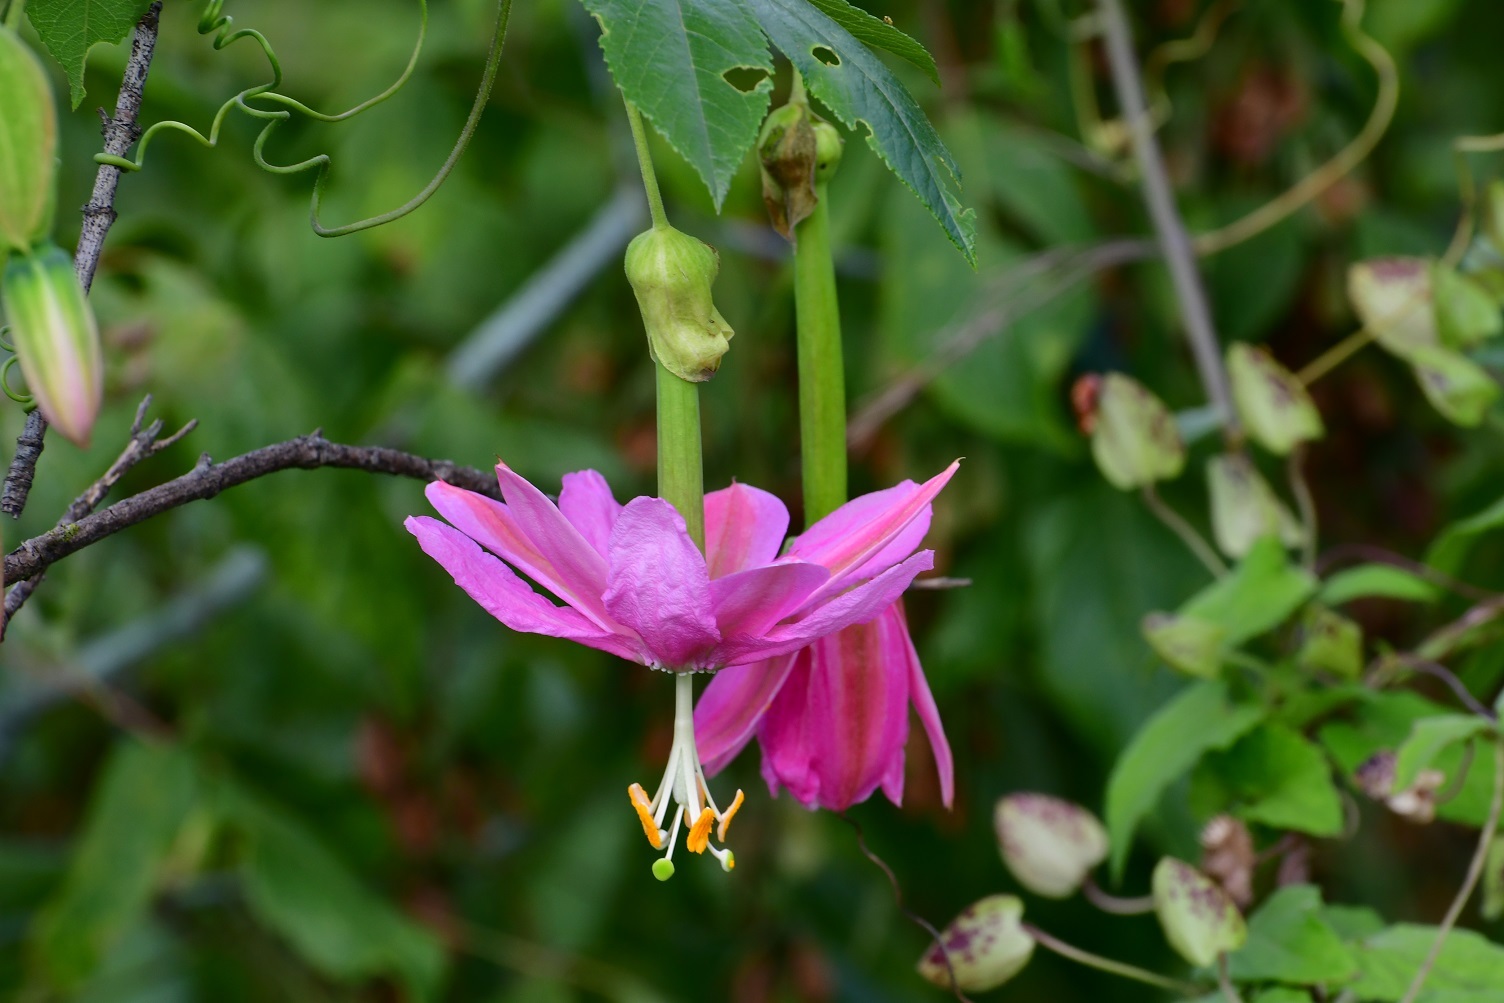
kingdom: Plantae
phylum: Tracheophyta
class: Magnoliopsida
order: Malpighiales
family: Passifloraceae
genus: Passiflora
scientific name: Passiflora tarminiana
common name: Banana poka
